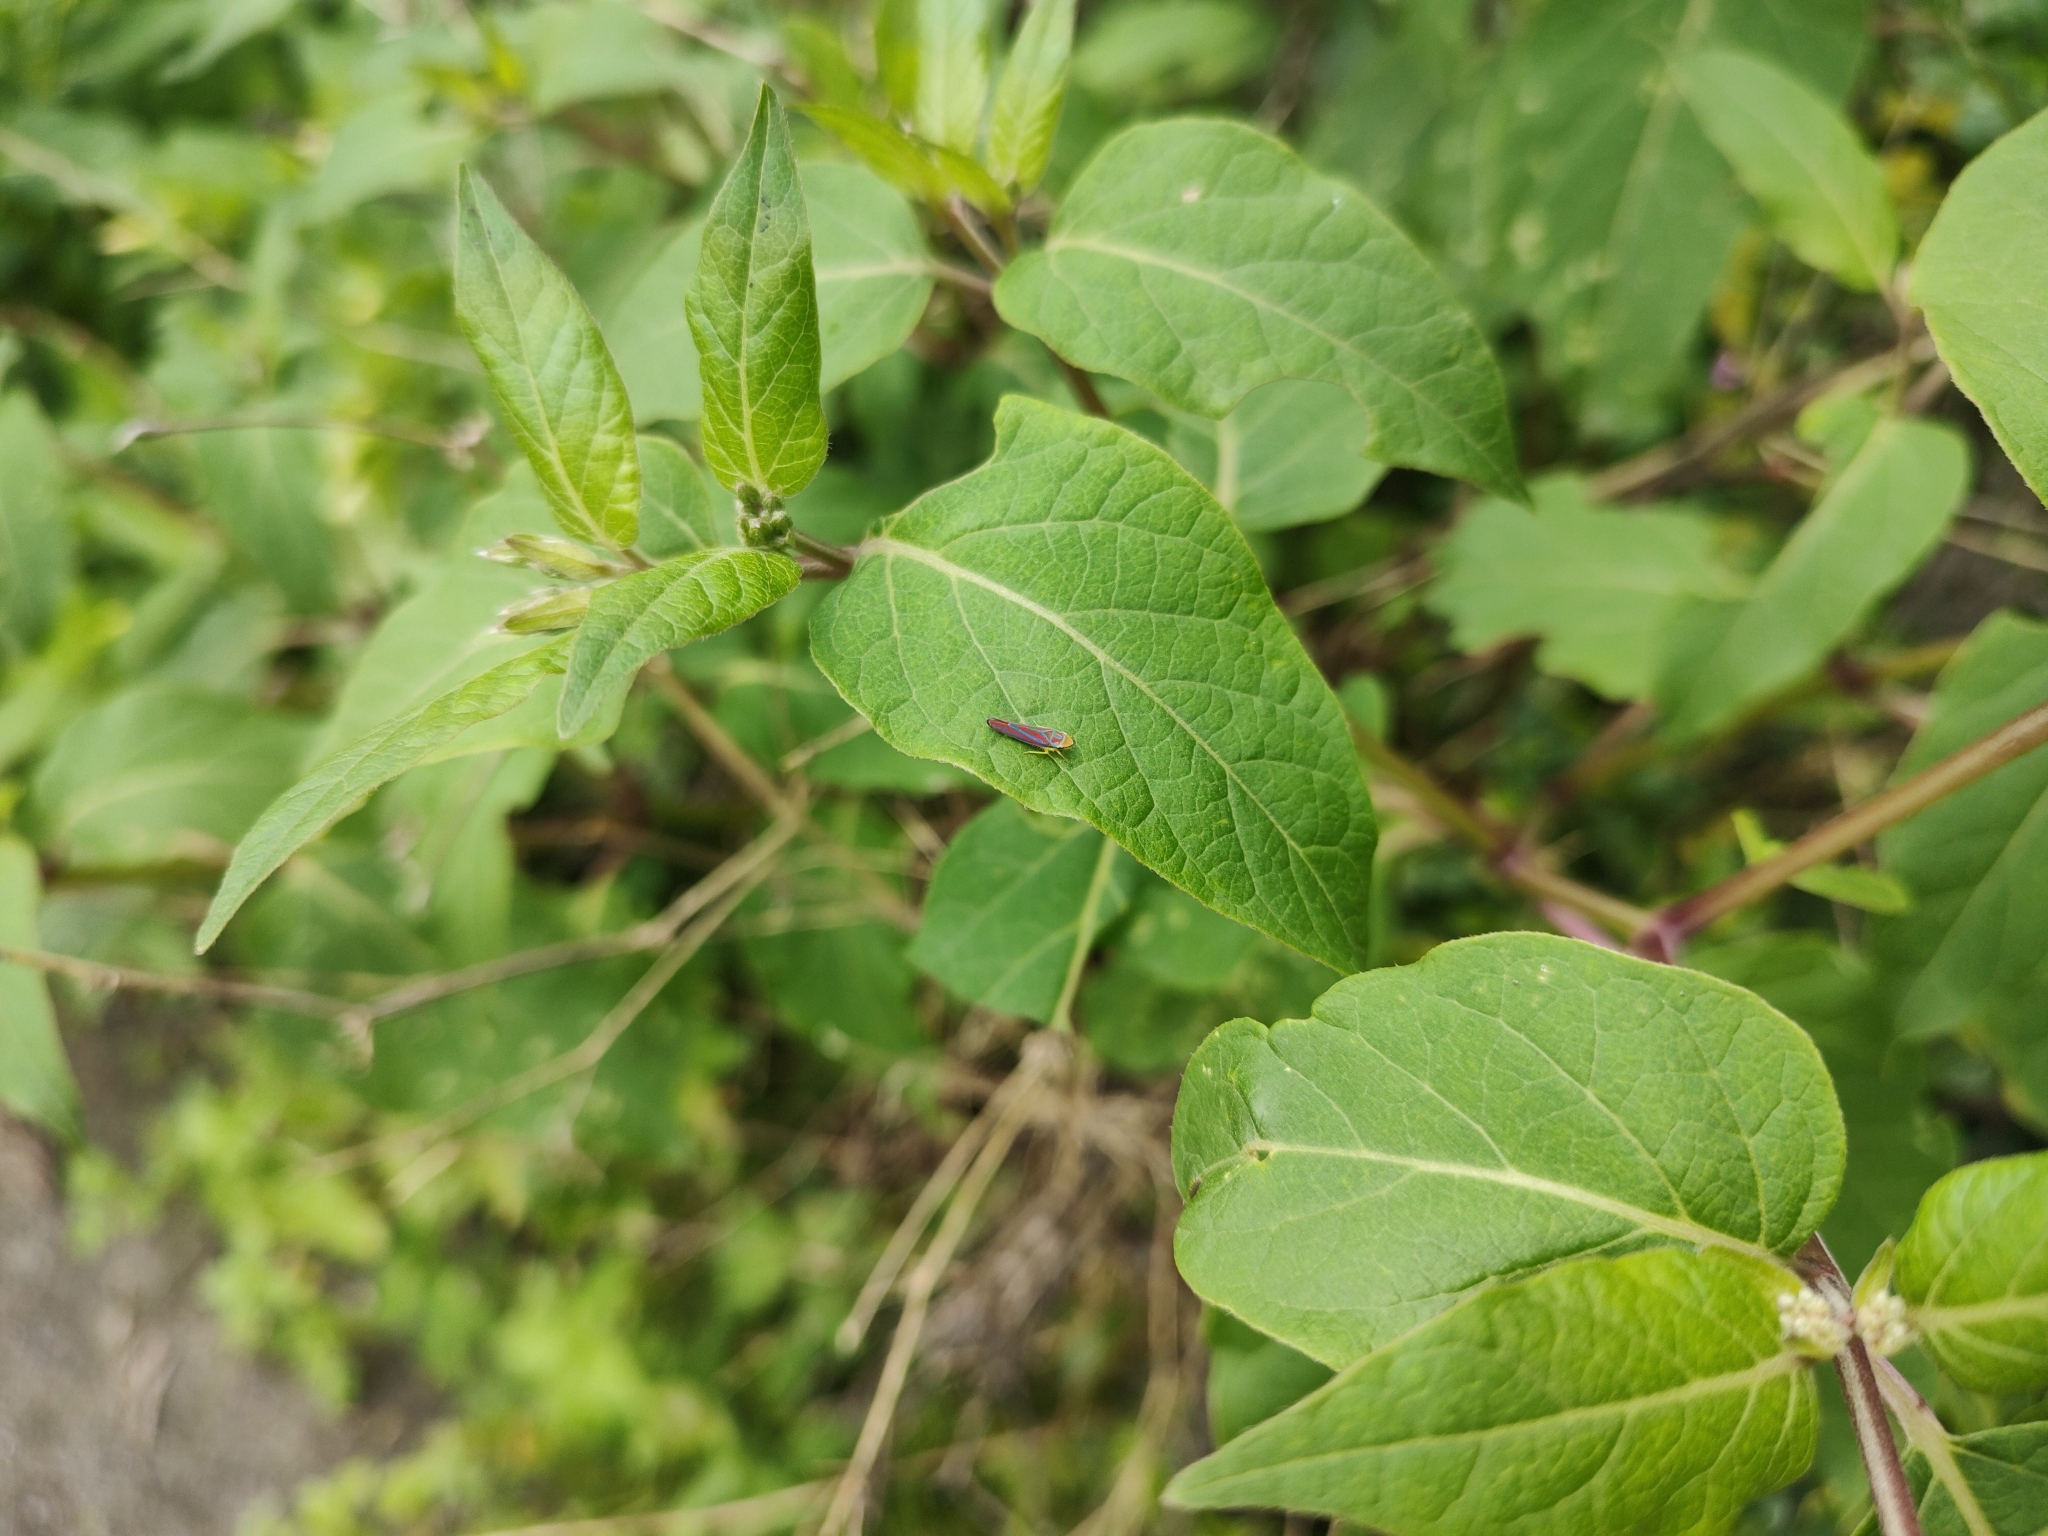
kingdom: Animalia
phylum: Arthropoda
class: Insecta
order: Hemiptera
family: Cicadellidae
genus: Graphocephala
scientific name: Graphocephala coccinea
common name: Candy-striped leafhopper
